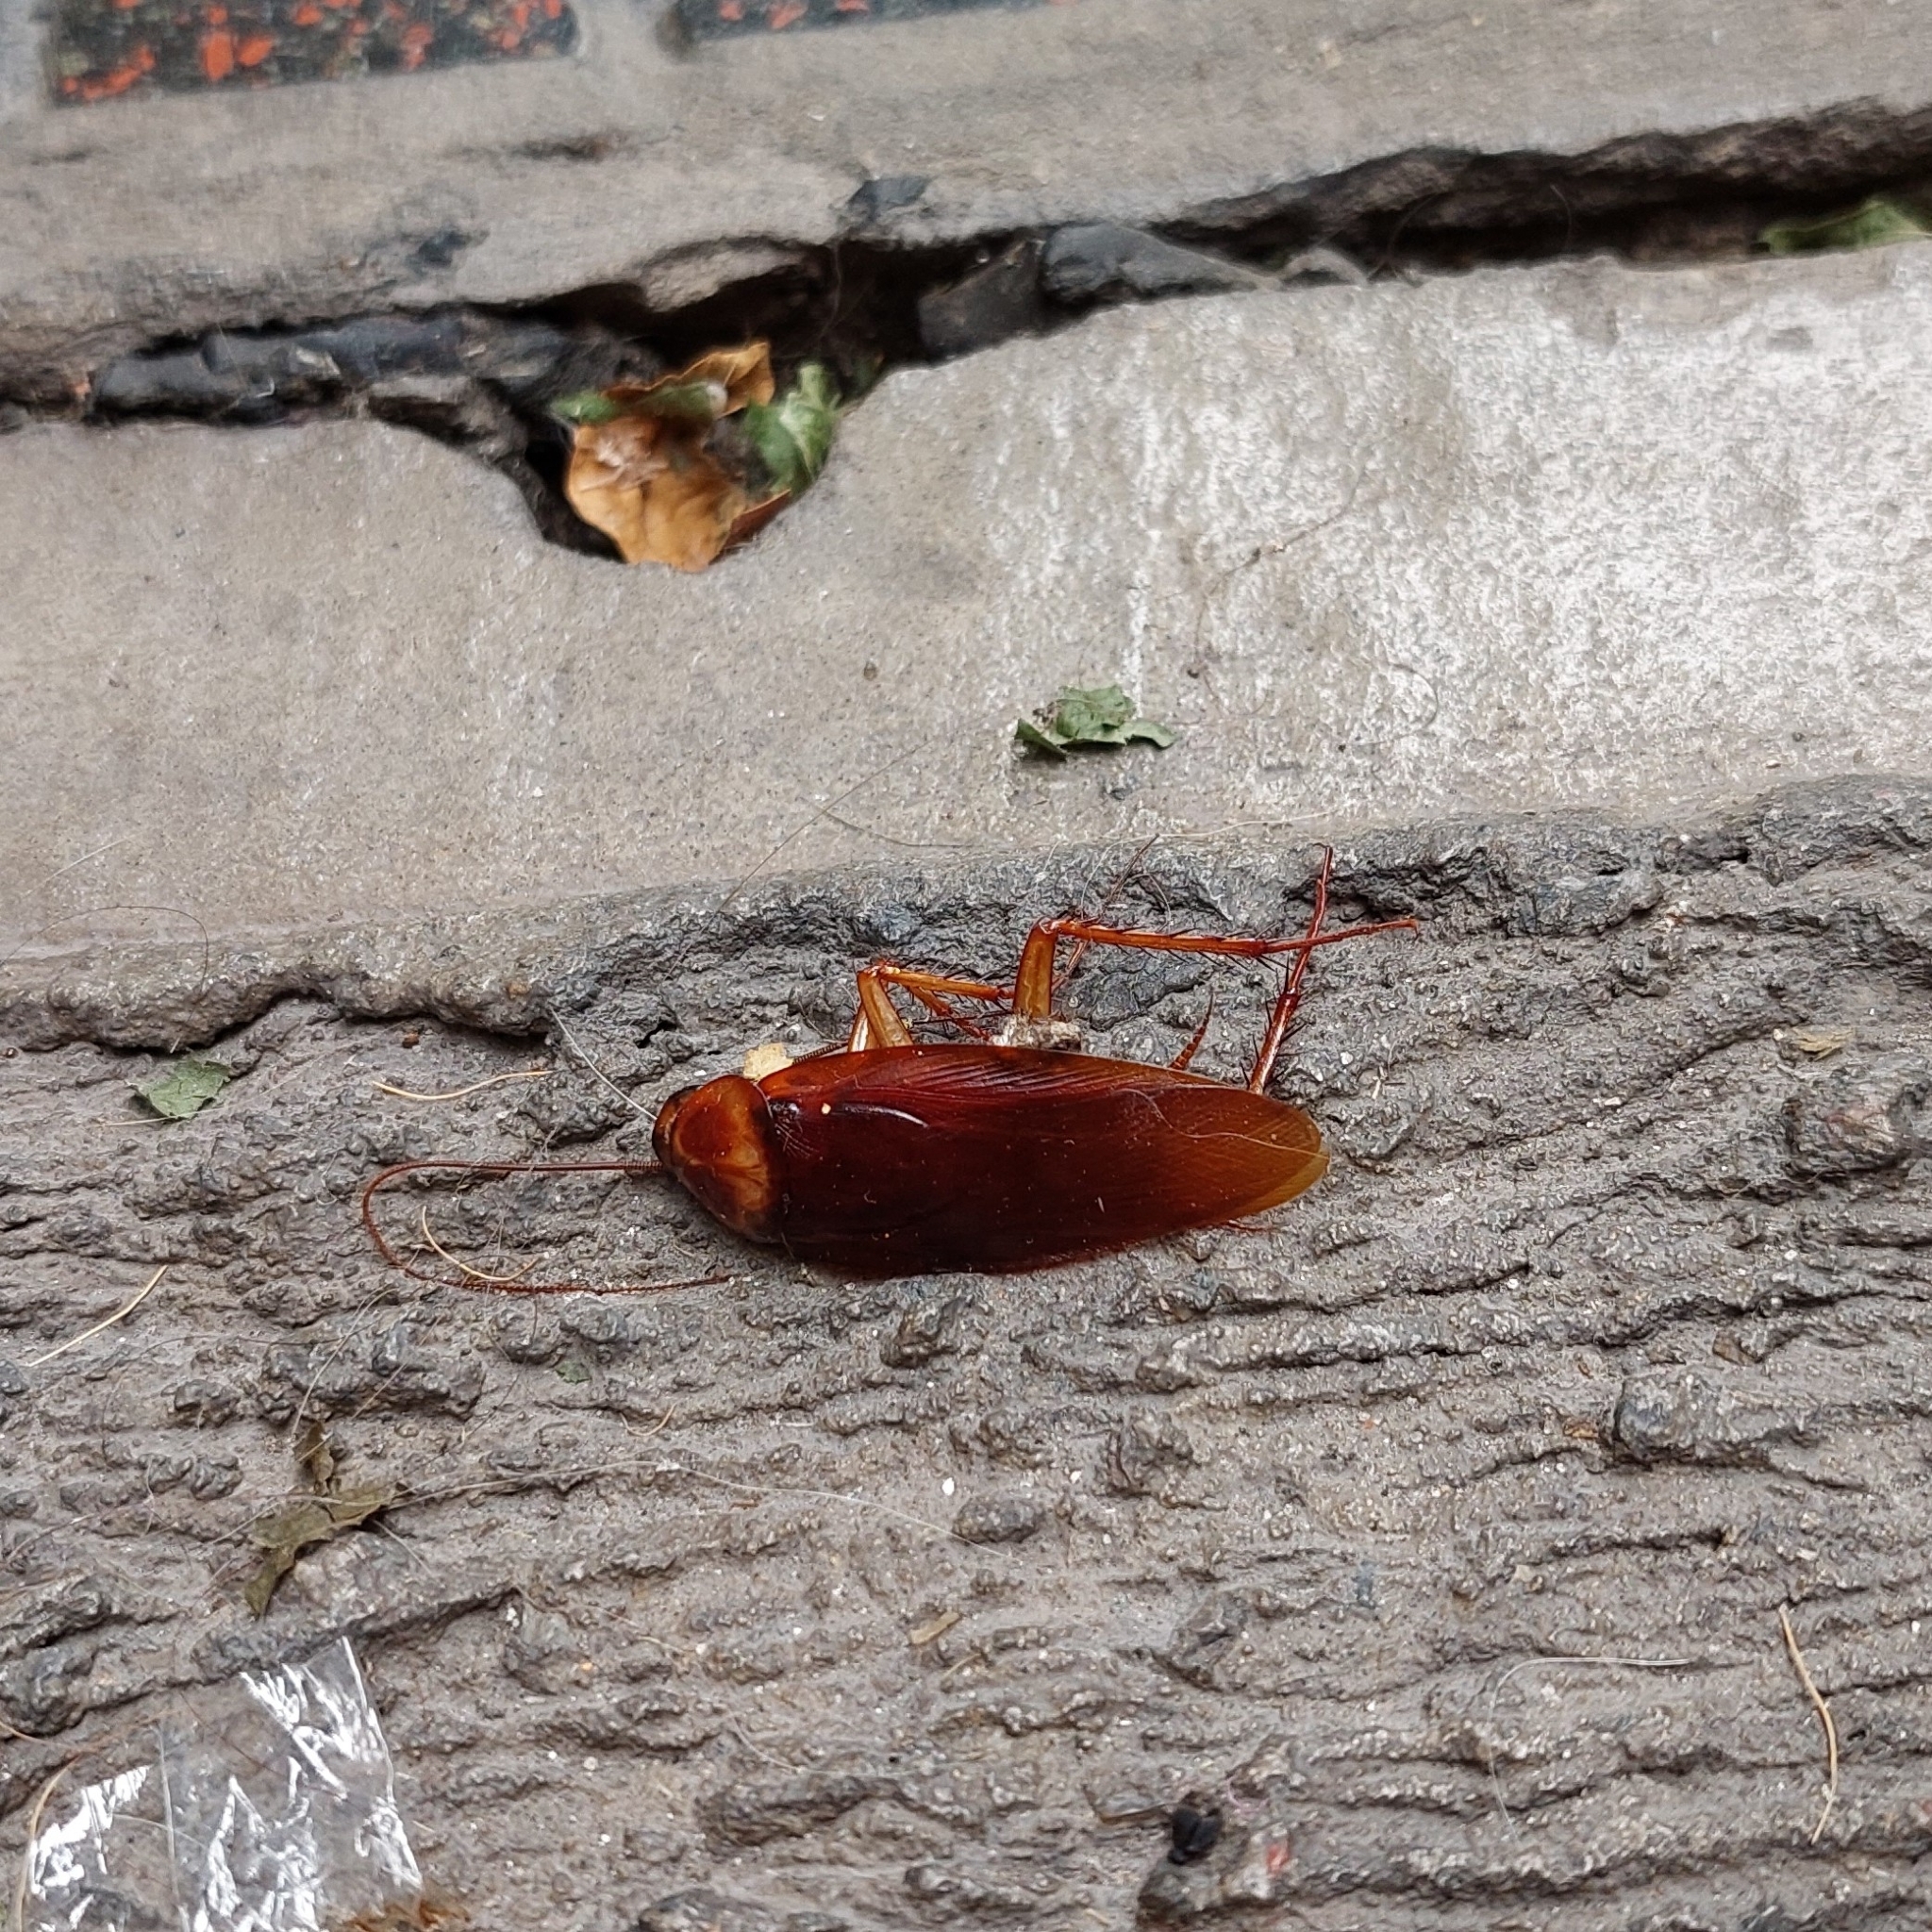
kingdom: Animalia
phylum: Arthropoda
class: Insecta
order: Blattodea
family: Blattidae
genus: Periplaneta
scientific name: Periplaneta americana
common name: American cockroach
